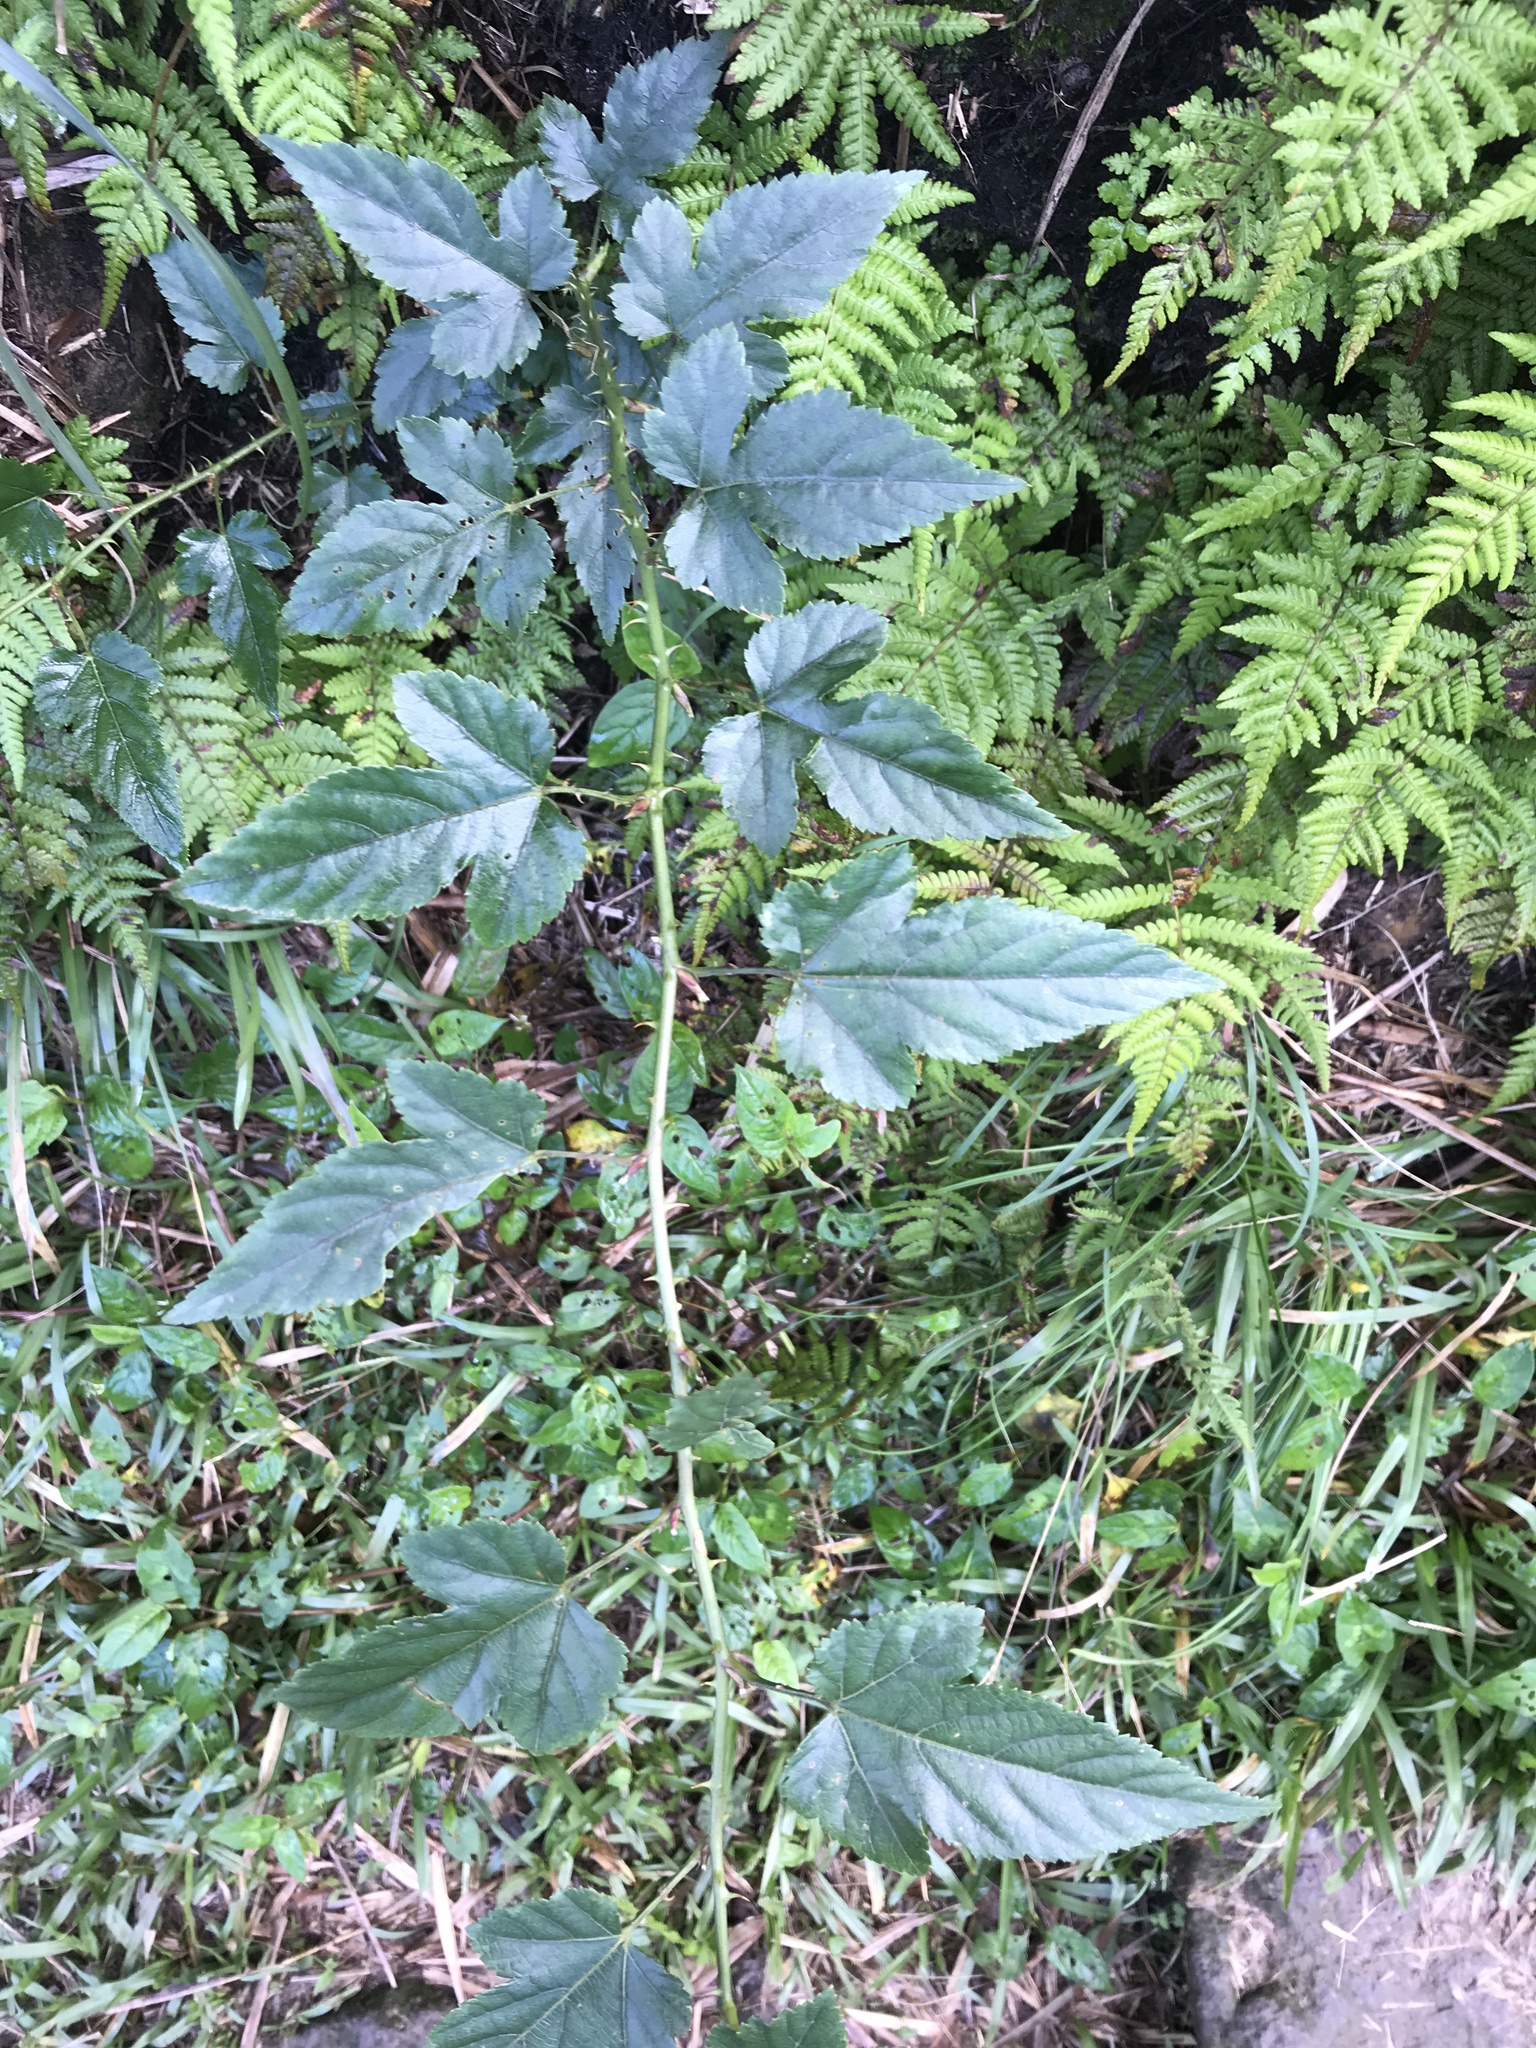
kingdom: Plantae
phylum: Tracheophyta
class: Magnoliopsida
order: Rosales
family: Rosaceae
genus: Rubus
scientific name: Rubus corchorifolius
